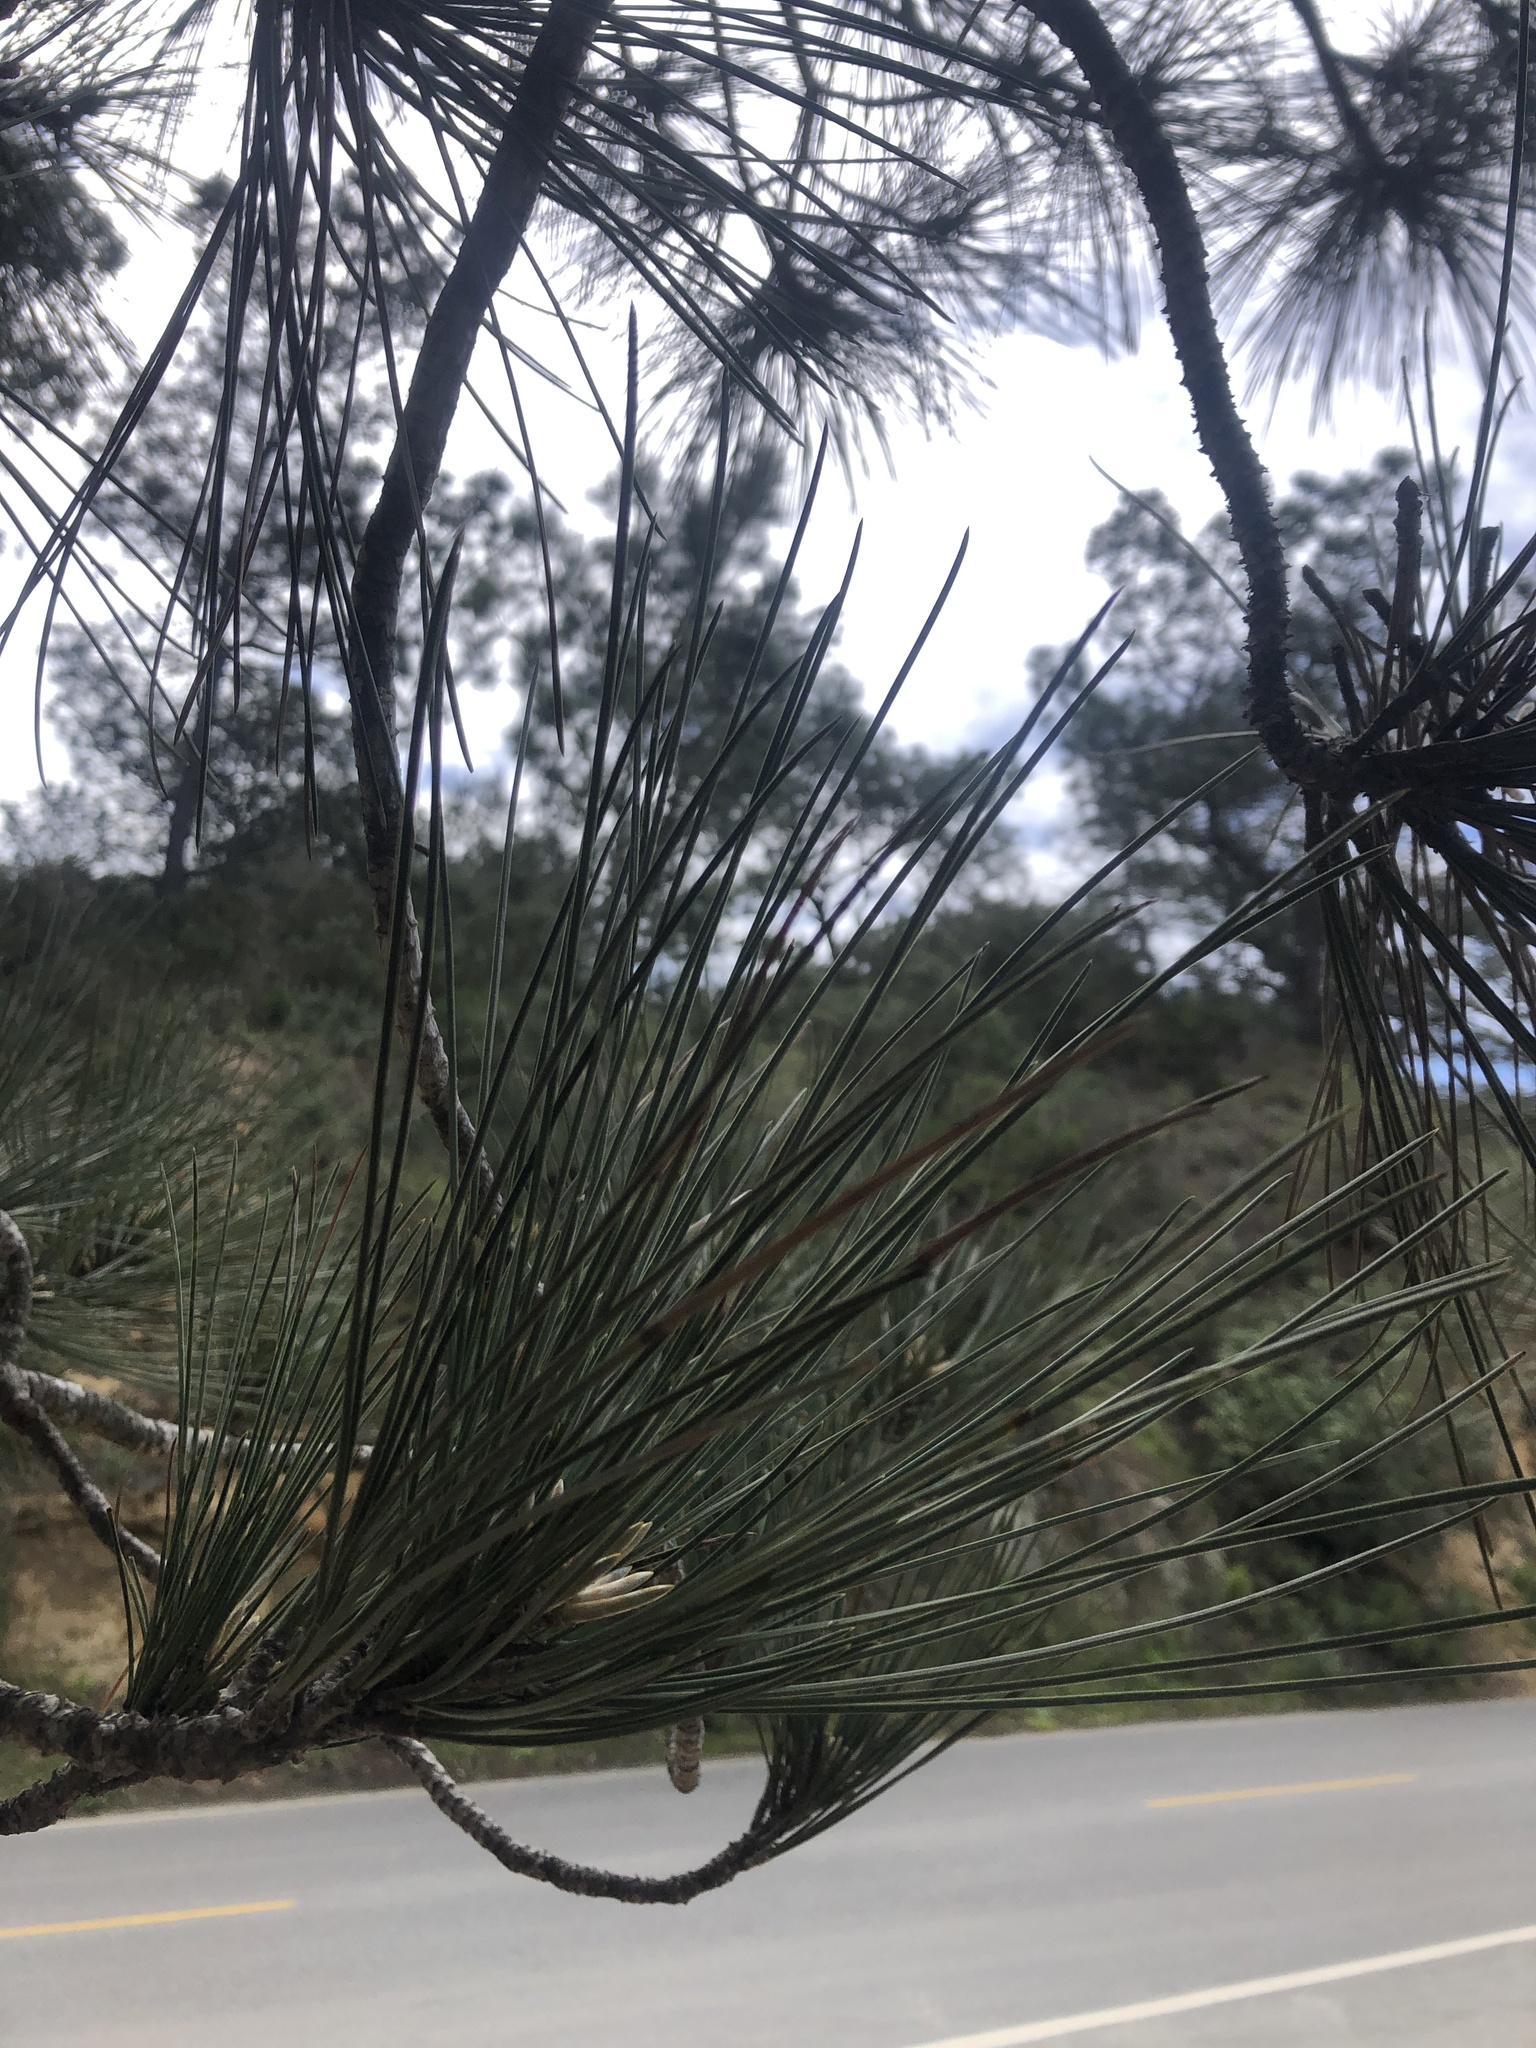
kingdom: Plantae
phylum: Tracheophyta
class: Pinopsida
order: Pinales
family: Pinaceae
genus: Pinus
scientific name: Pinus torreyana
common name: Torrey pine
